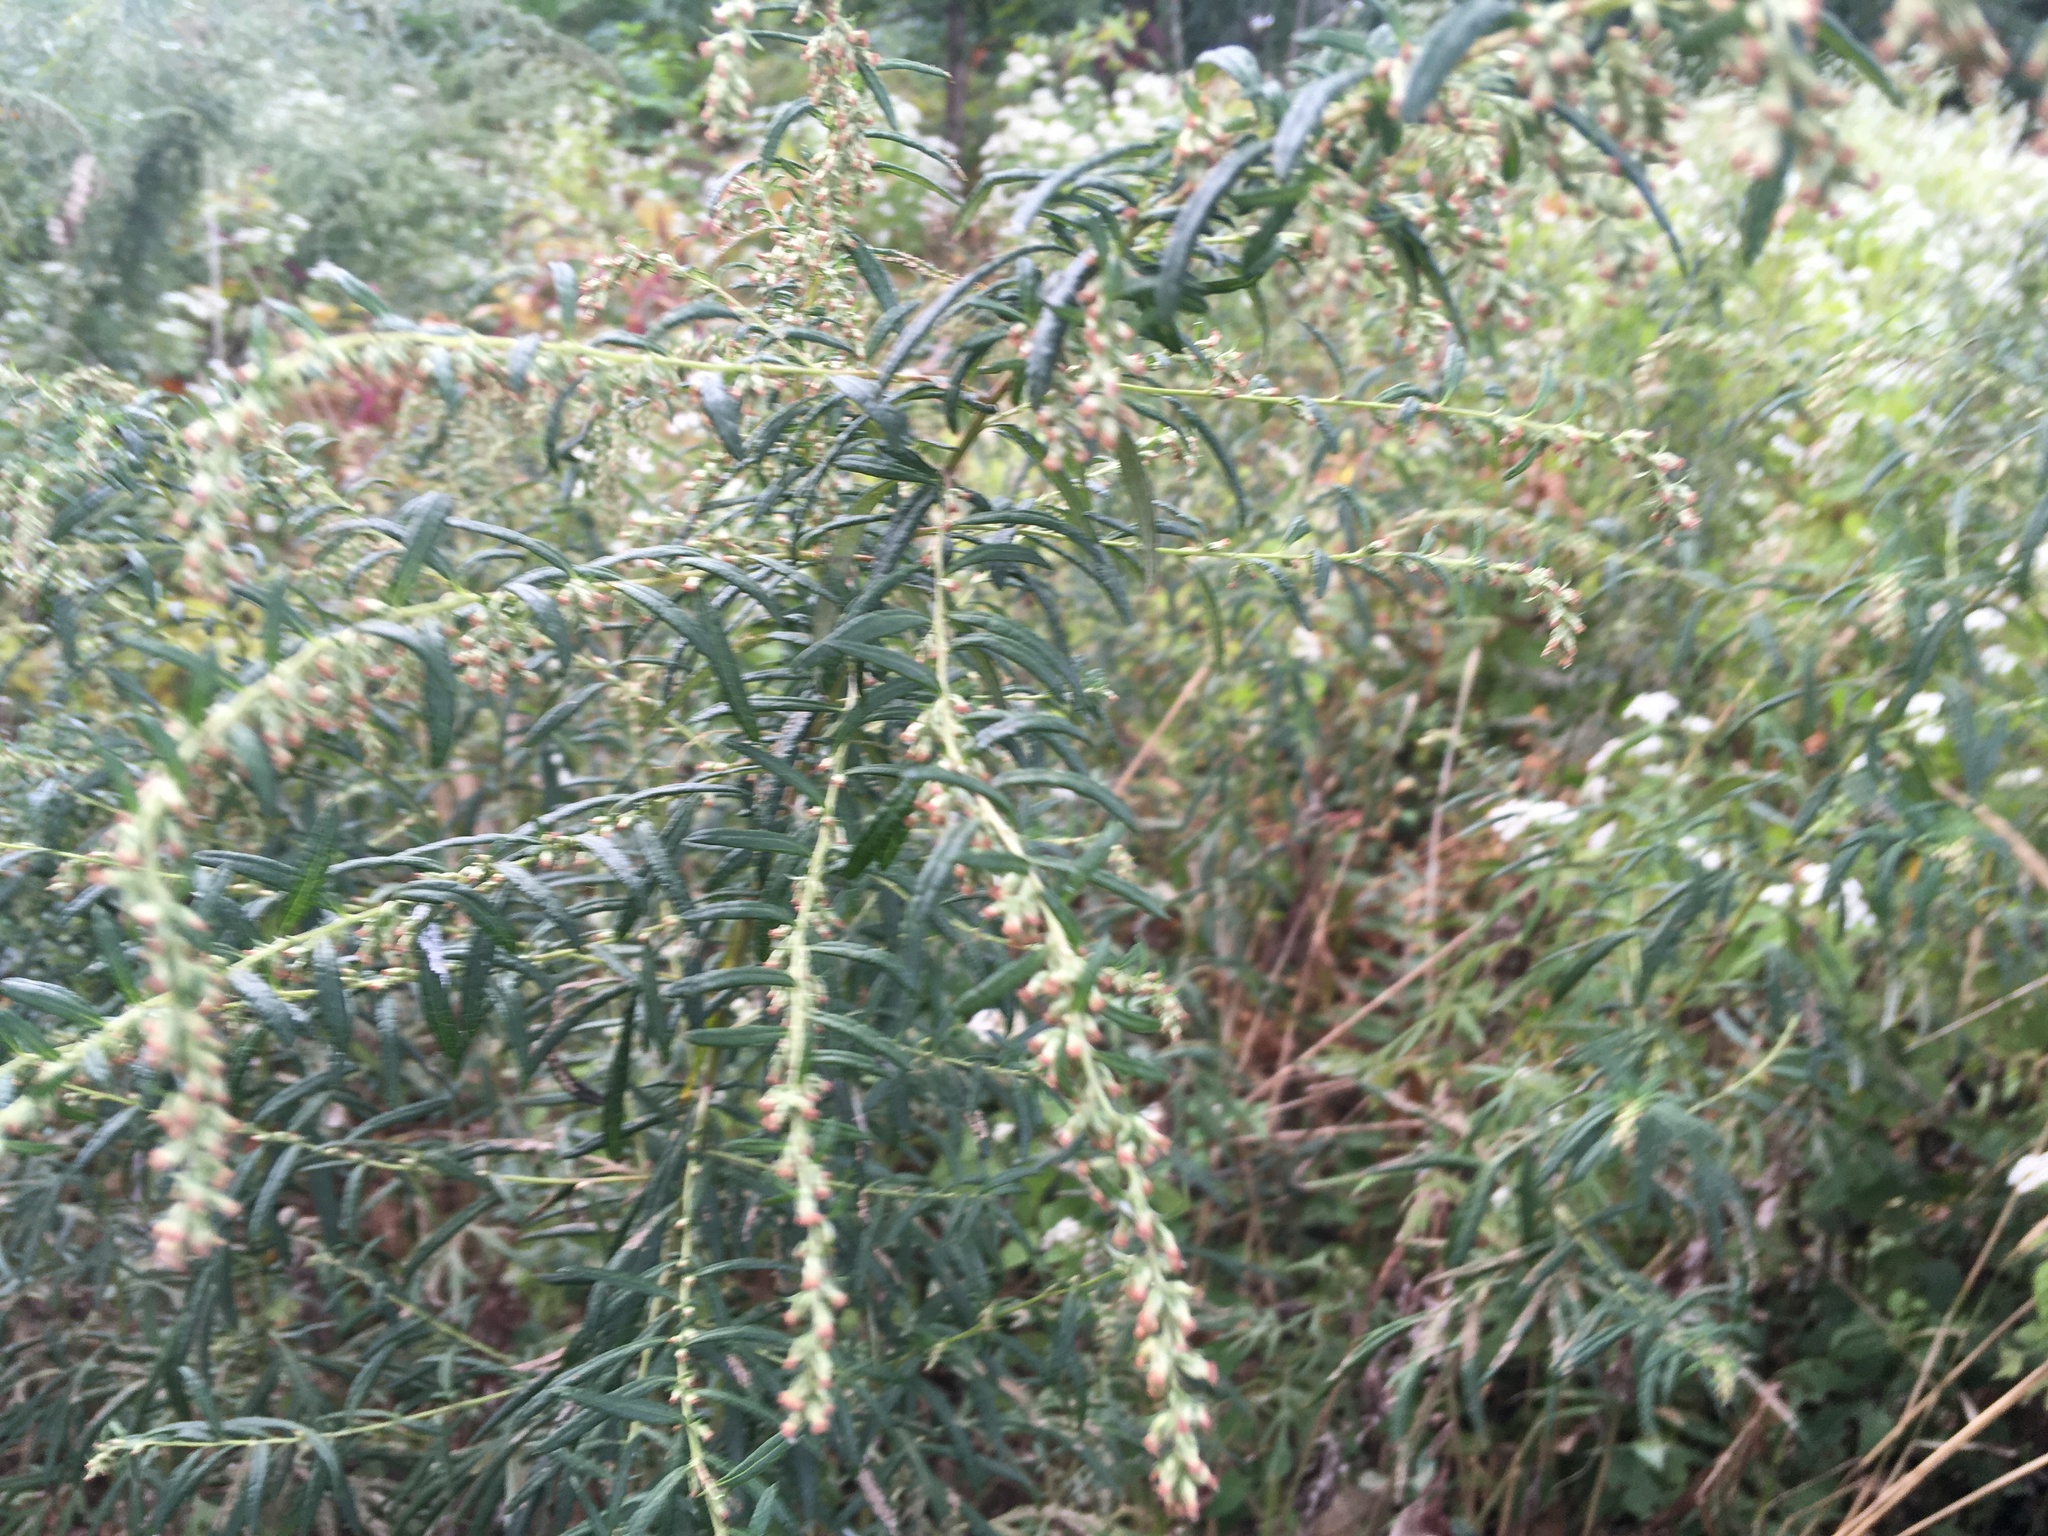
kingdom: Plantae
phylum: Tracheophyta
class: Magnoliopsida
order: Asterales
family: Asteraceae
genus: Artemisia
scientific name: Artemisia vulgaris
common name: Mugwort
